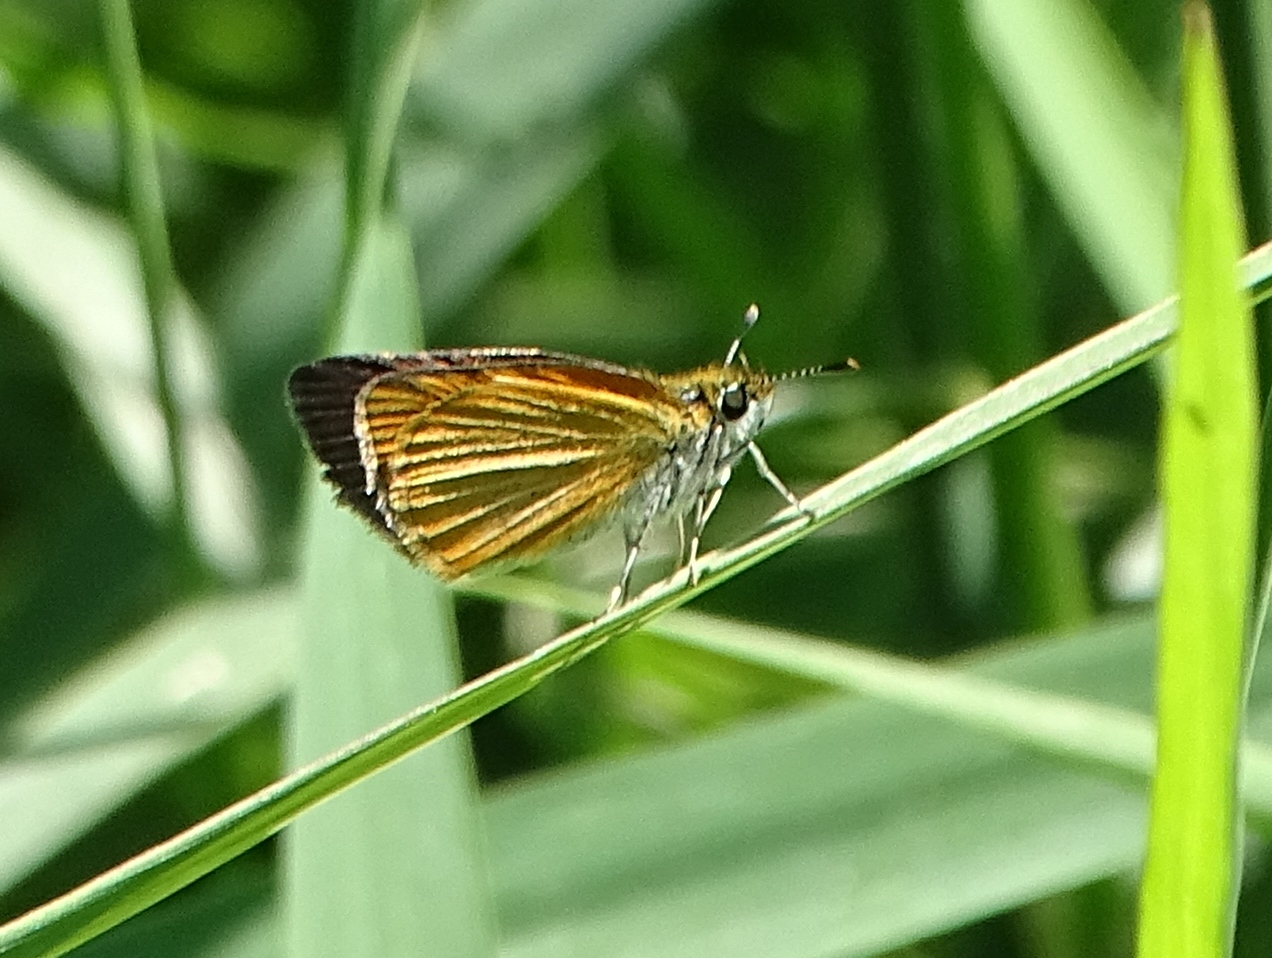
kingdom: Animalia
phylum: Arthropoda
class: Insecta
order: Lepidoptera
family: Hesperiidae
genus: Ancyloxypha
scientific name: Ancyloxypha numitor
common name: Least skipper
